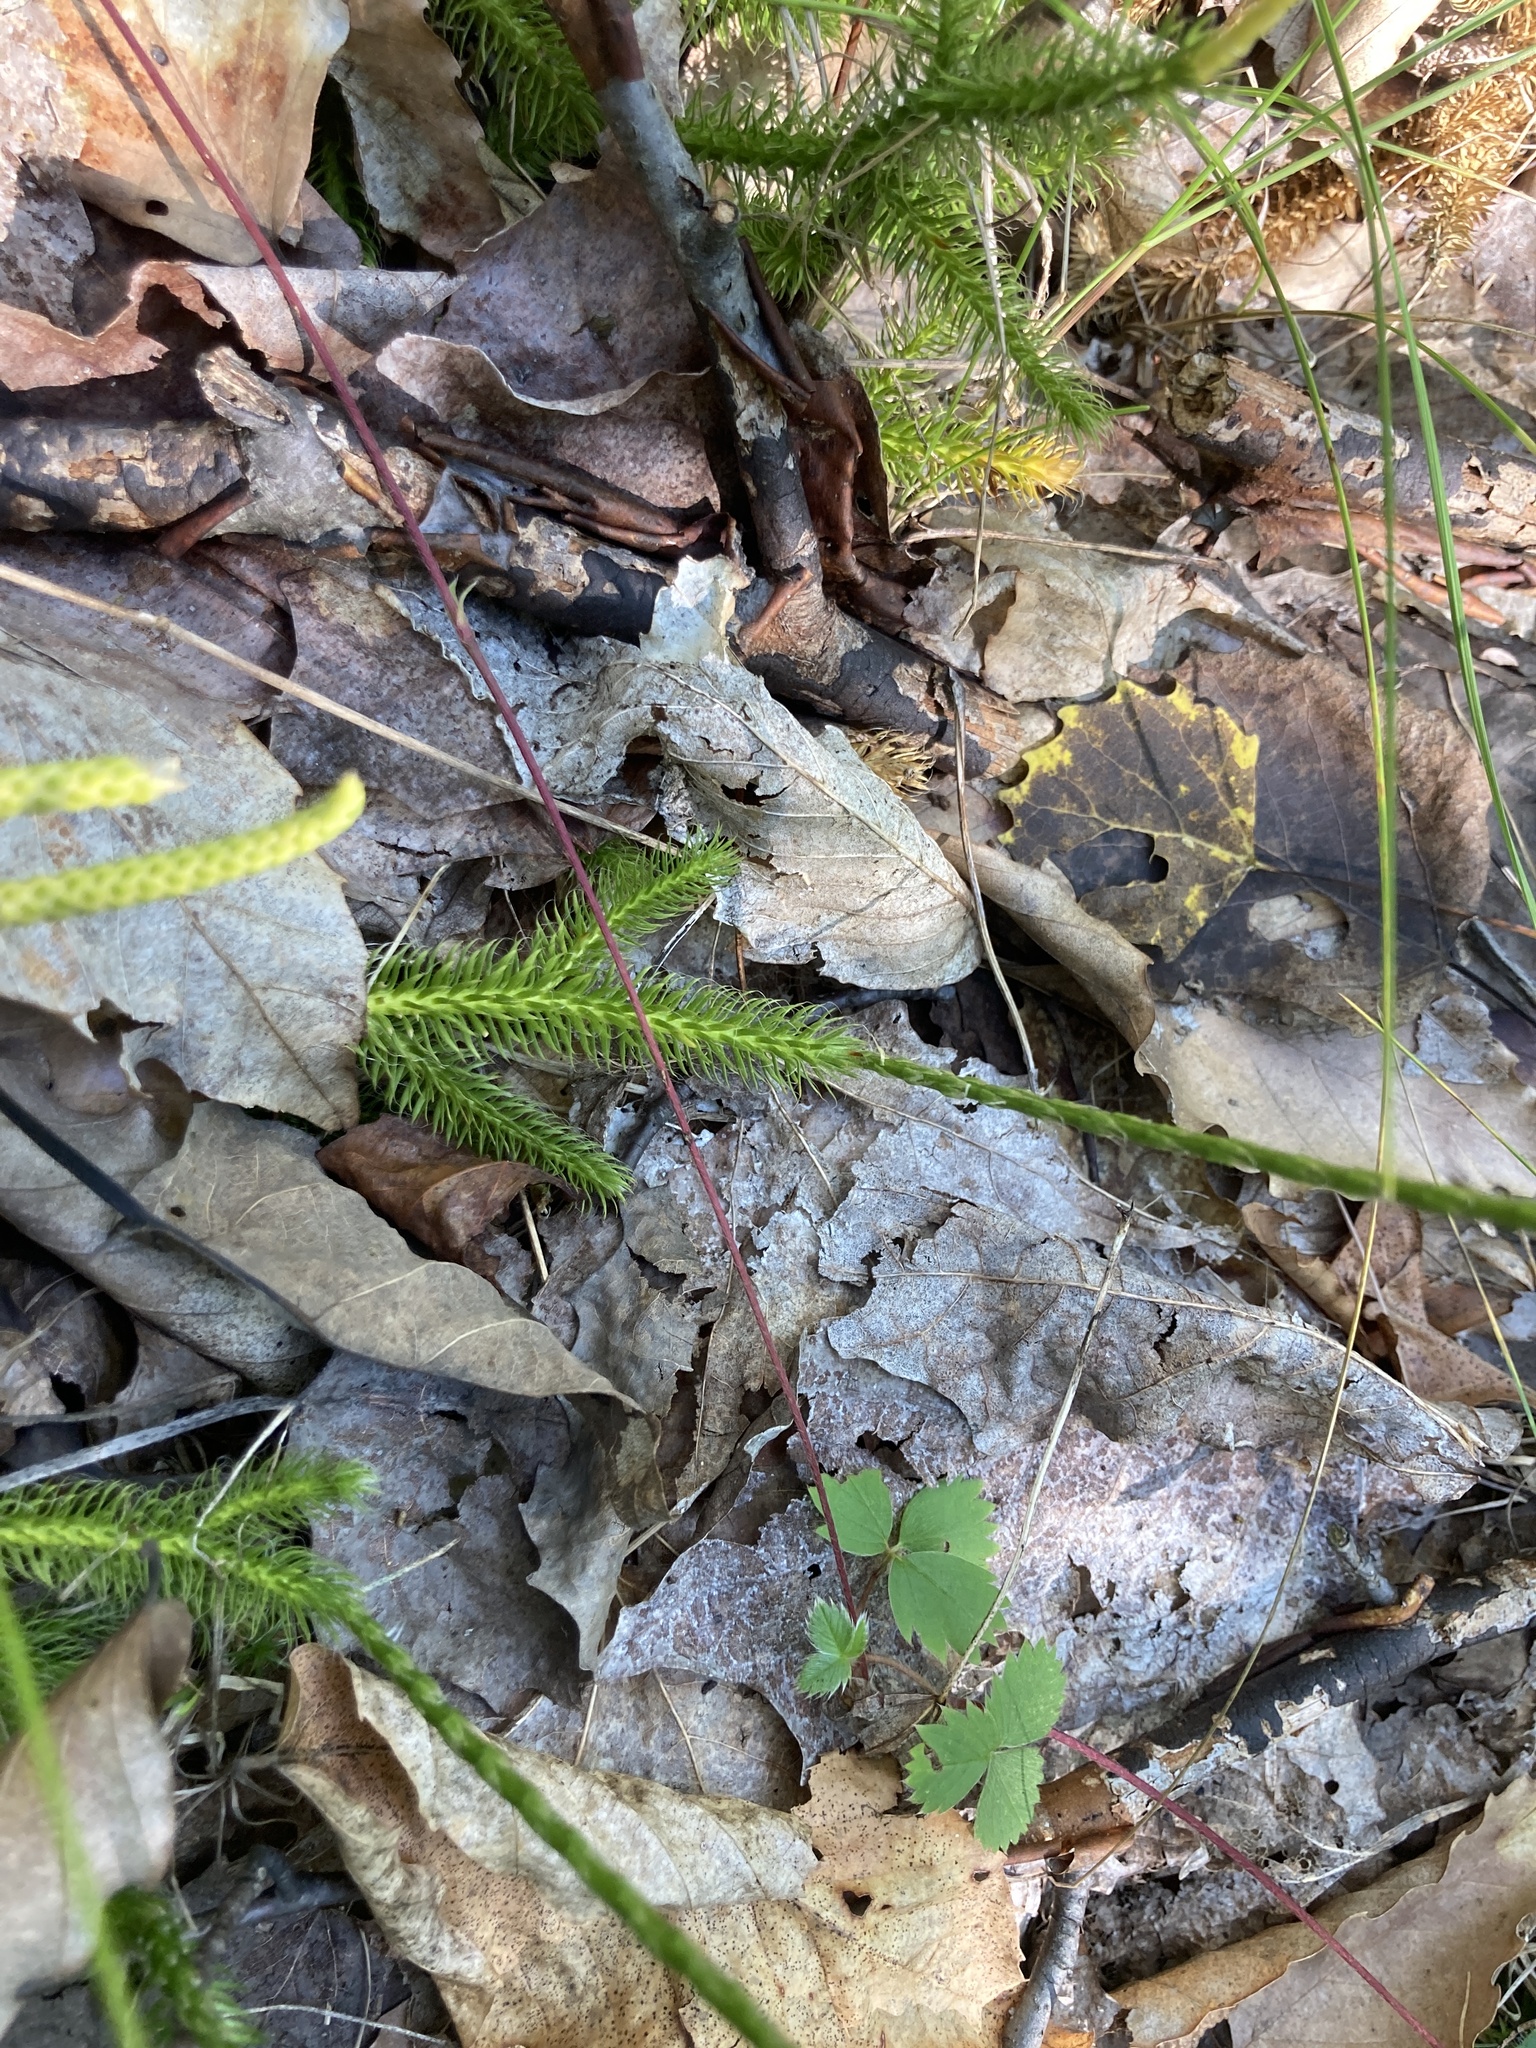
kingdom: Plantae
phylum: Tracheophyta
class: Lycopodiopsida
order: Lycopodiales
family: Lycopodiaceae
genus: Lycopodium
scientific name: Lycopodium clavatum
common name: Stag's-horn clubmoss
